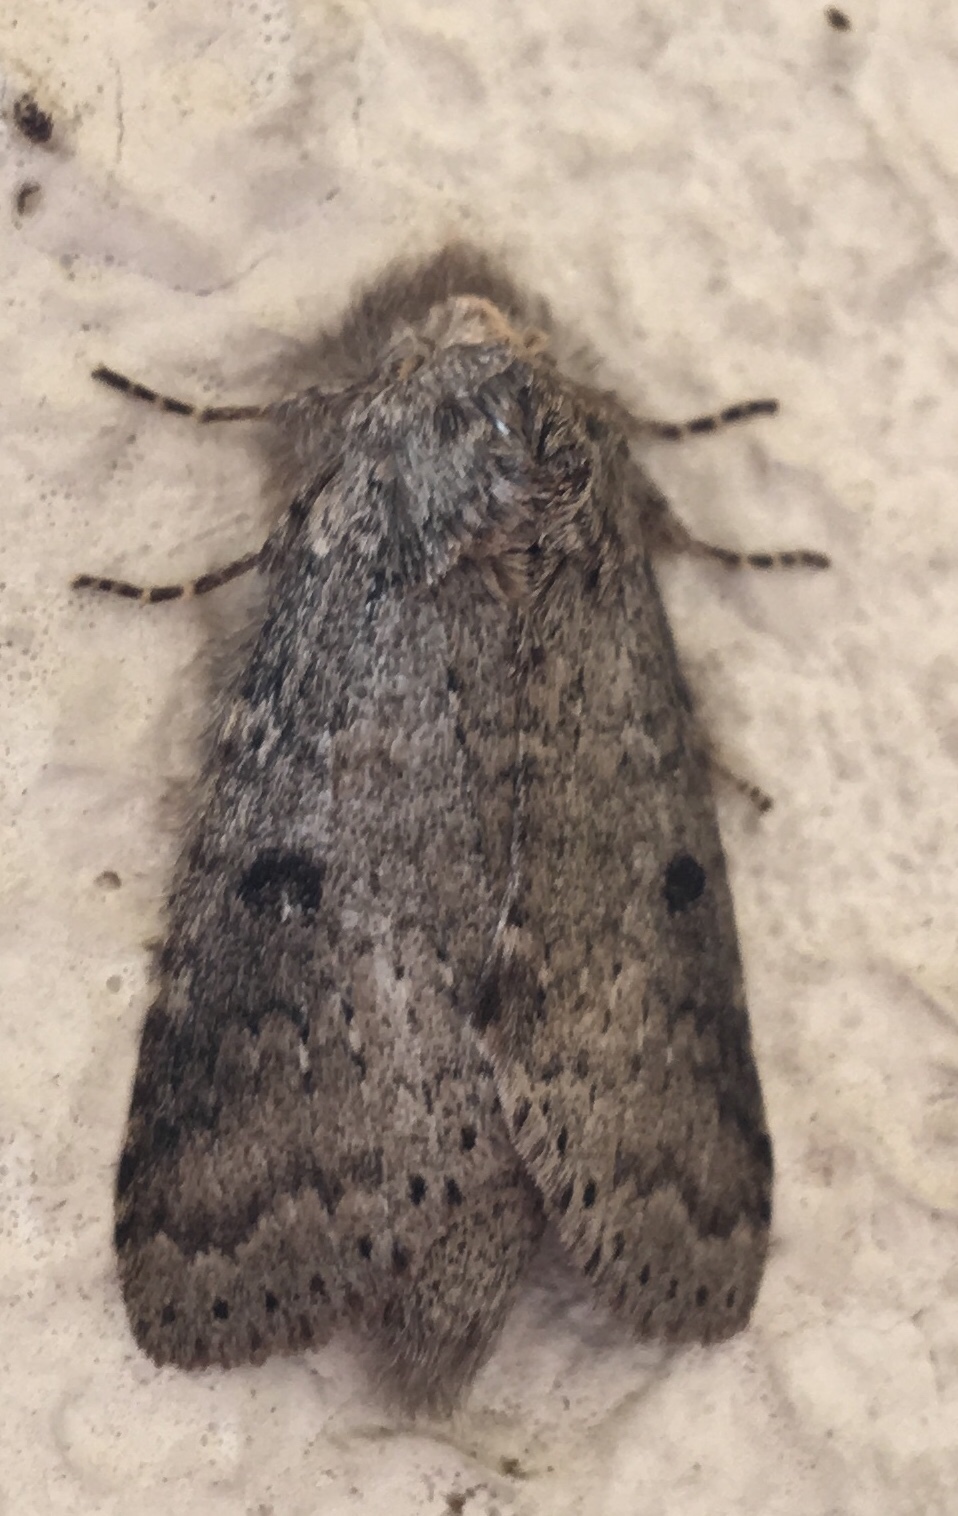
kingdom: Animalia
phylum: Arthropoda
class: Insecta
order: Lepidoptera
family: Notodontidae
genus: Lochmaeus
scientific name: Lochmaeus manteo
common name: Variable oakleaf caterpillar moth
